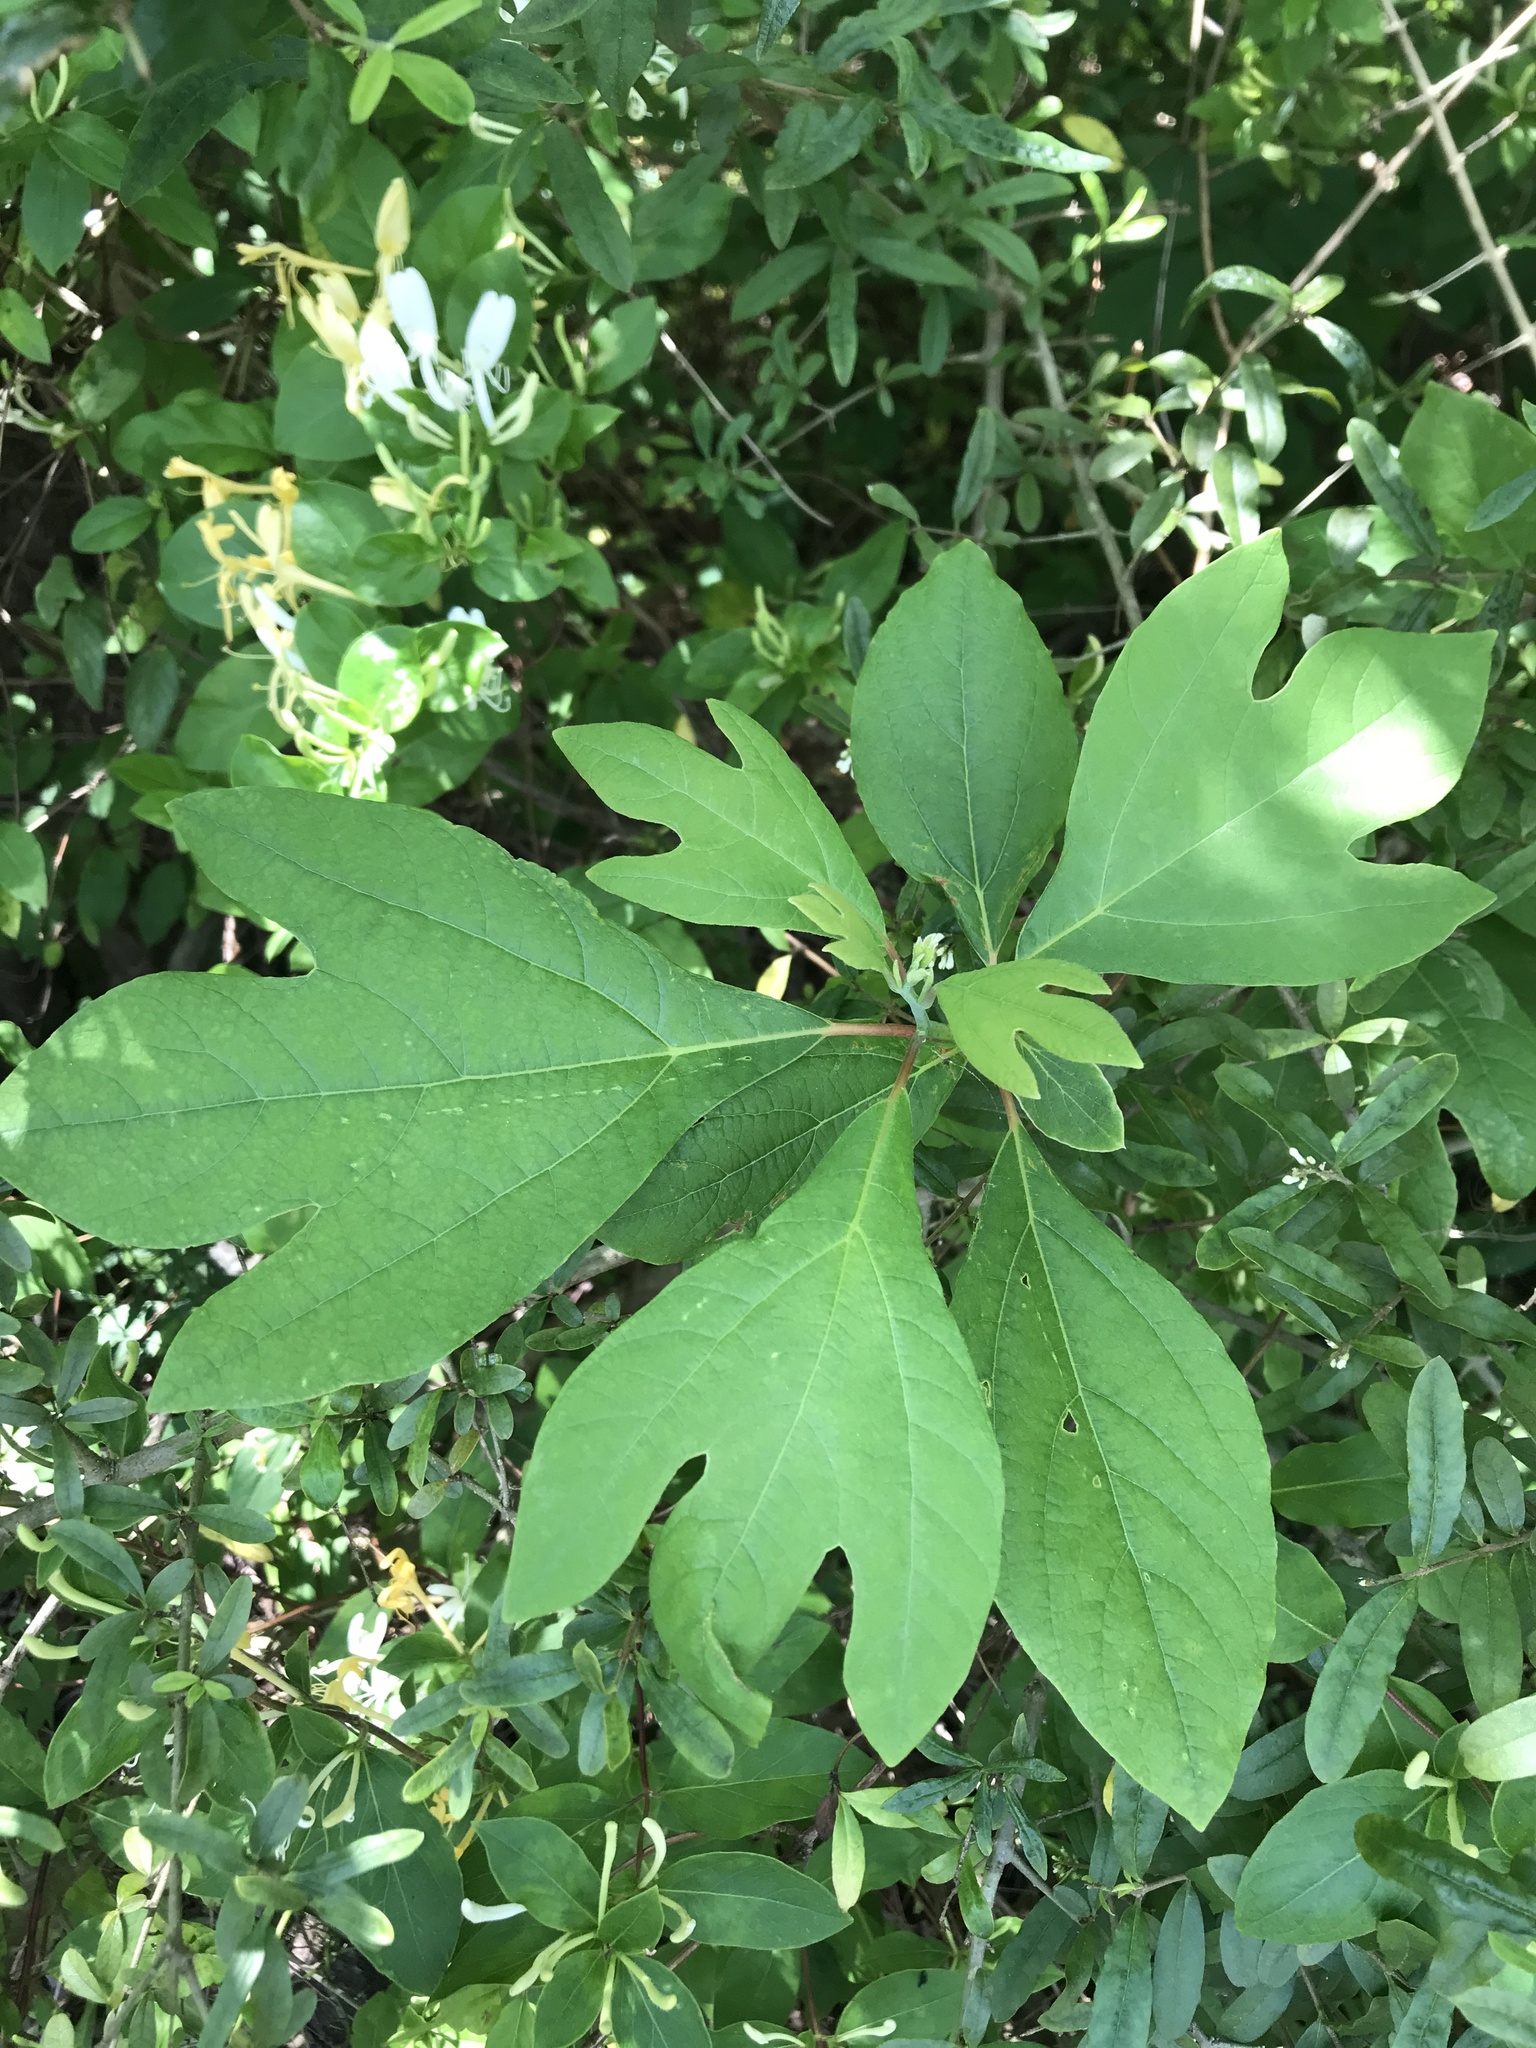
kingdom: Plantae
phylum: Tracheophyta
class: Magnoliopsida
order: Laurales
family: Lauraceae
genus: Sassafras
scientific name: Sassafras albidum
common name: Sassafras
